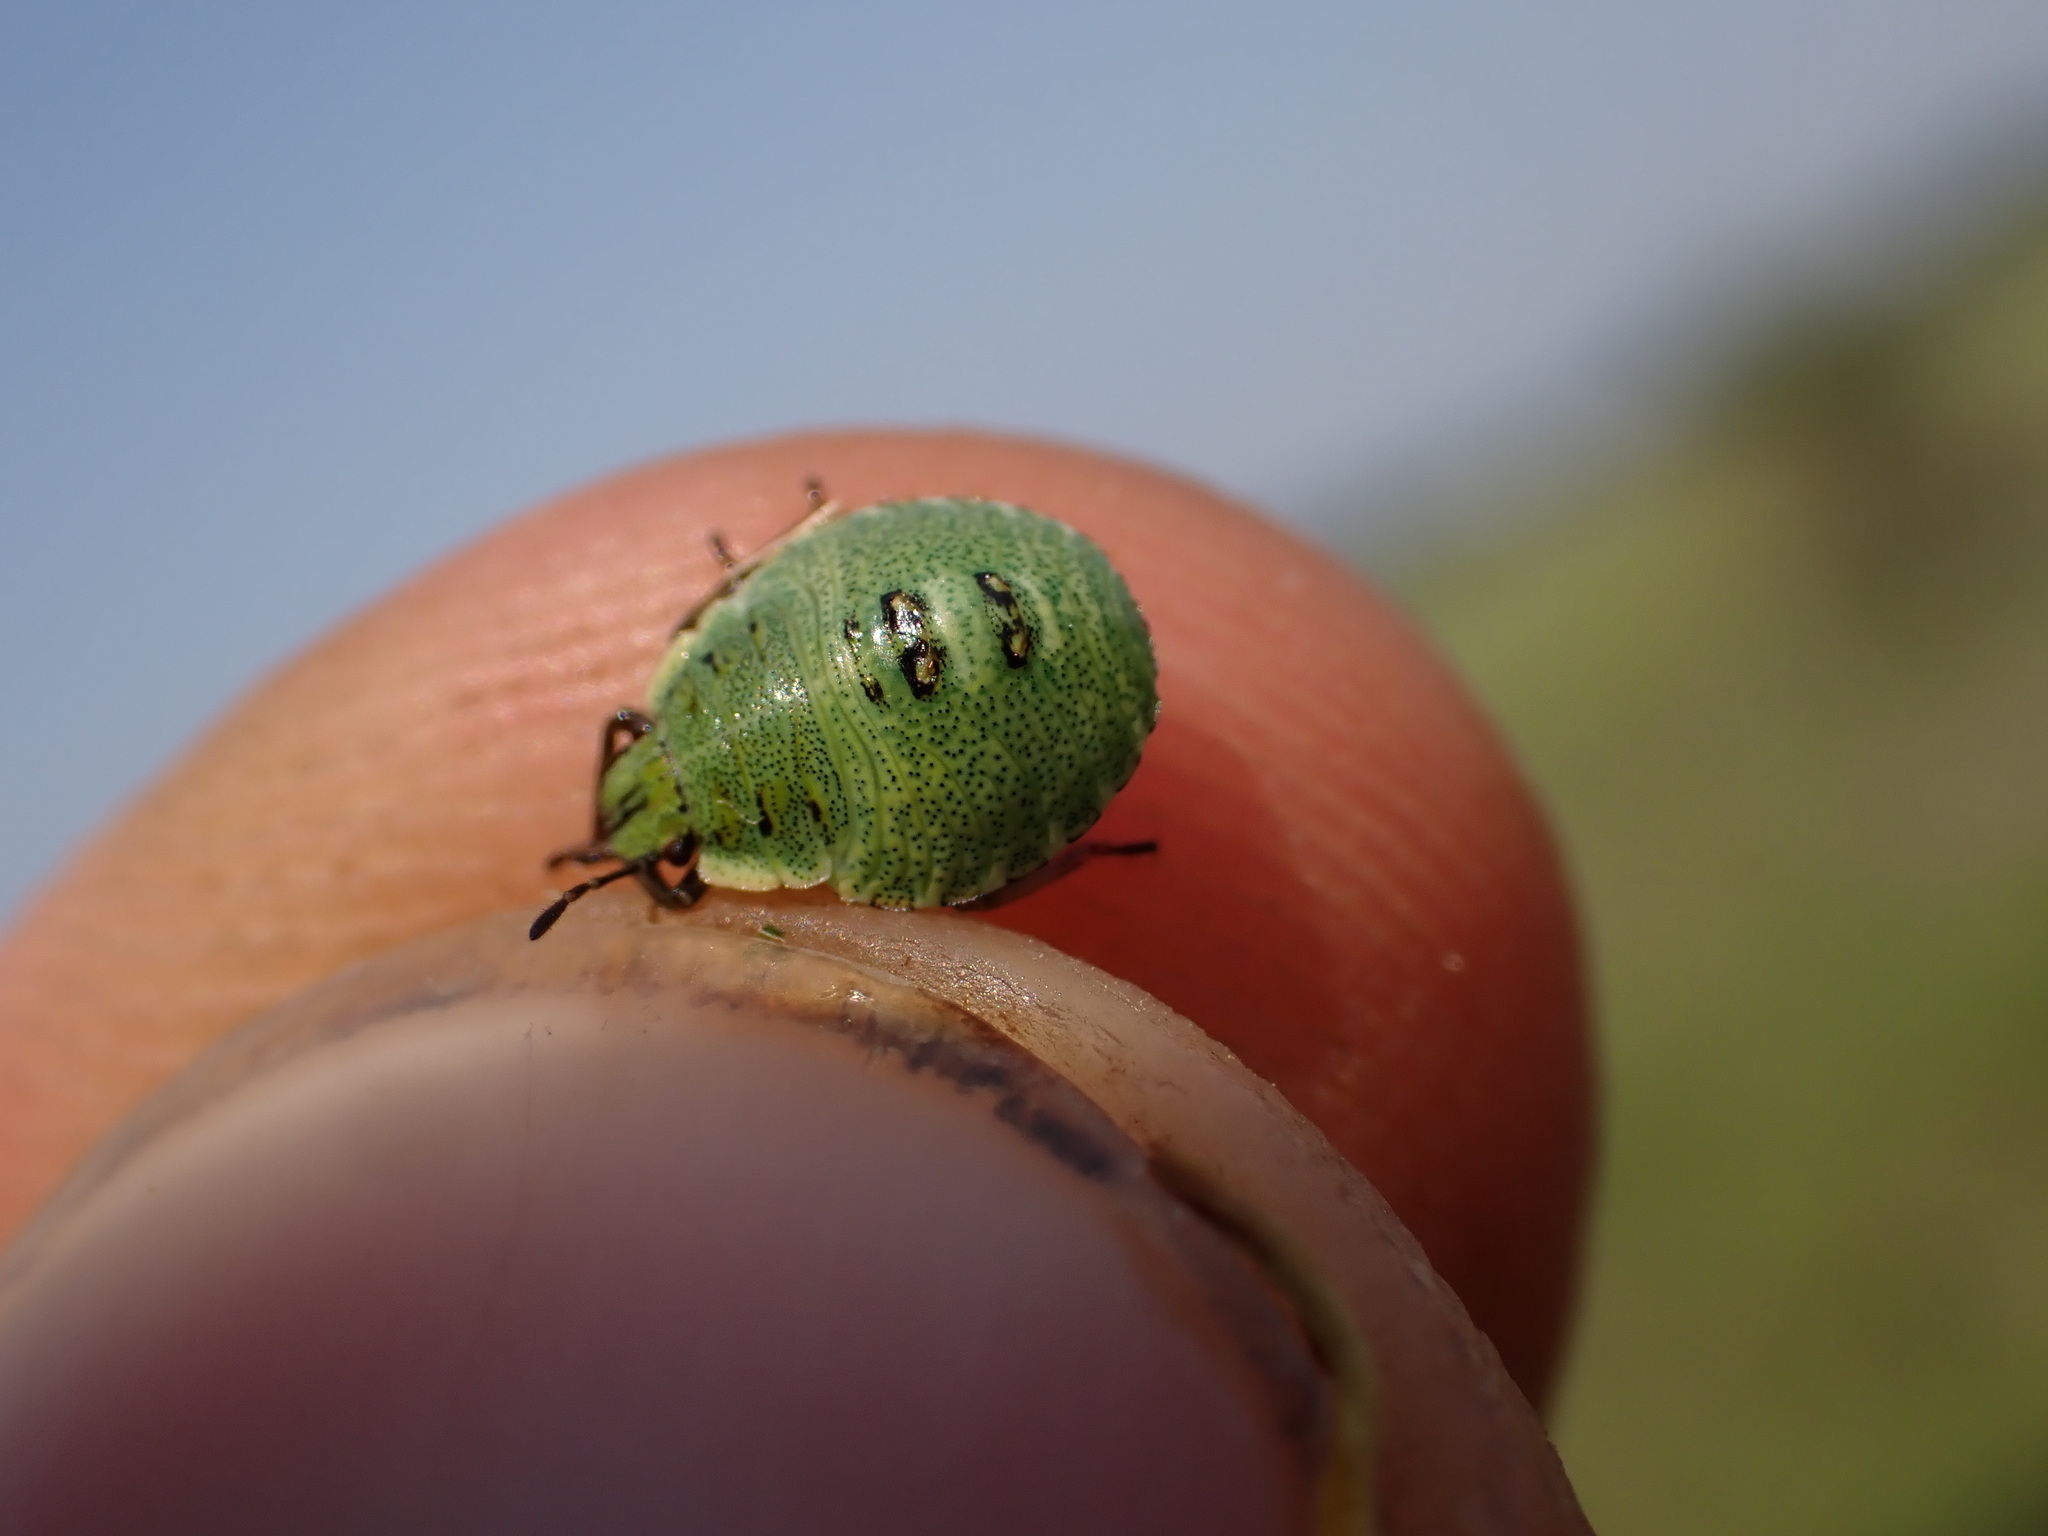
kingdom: Animalia
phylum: Arthropoda
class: Insecta
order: Hemiptera
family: Pentatomidae
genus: Palomena
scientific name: Palomena prasina
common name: Green shieldbug
